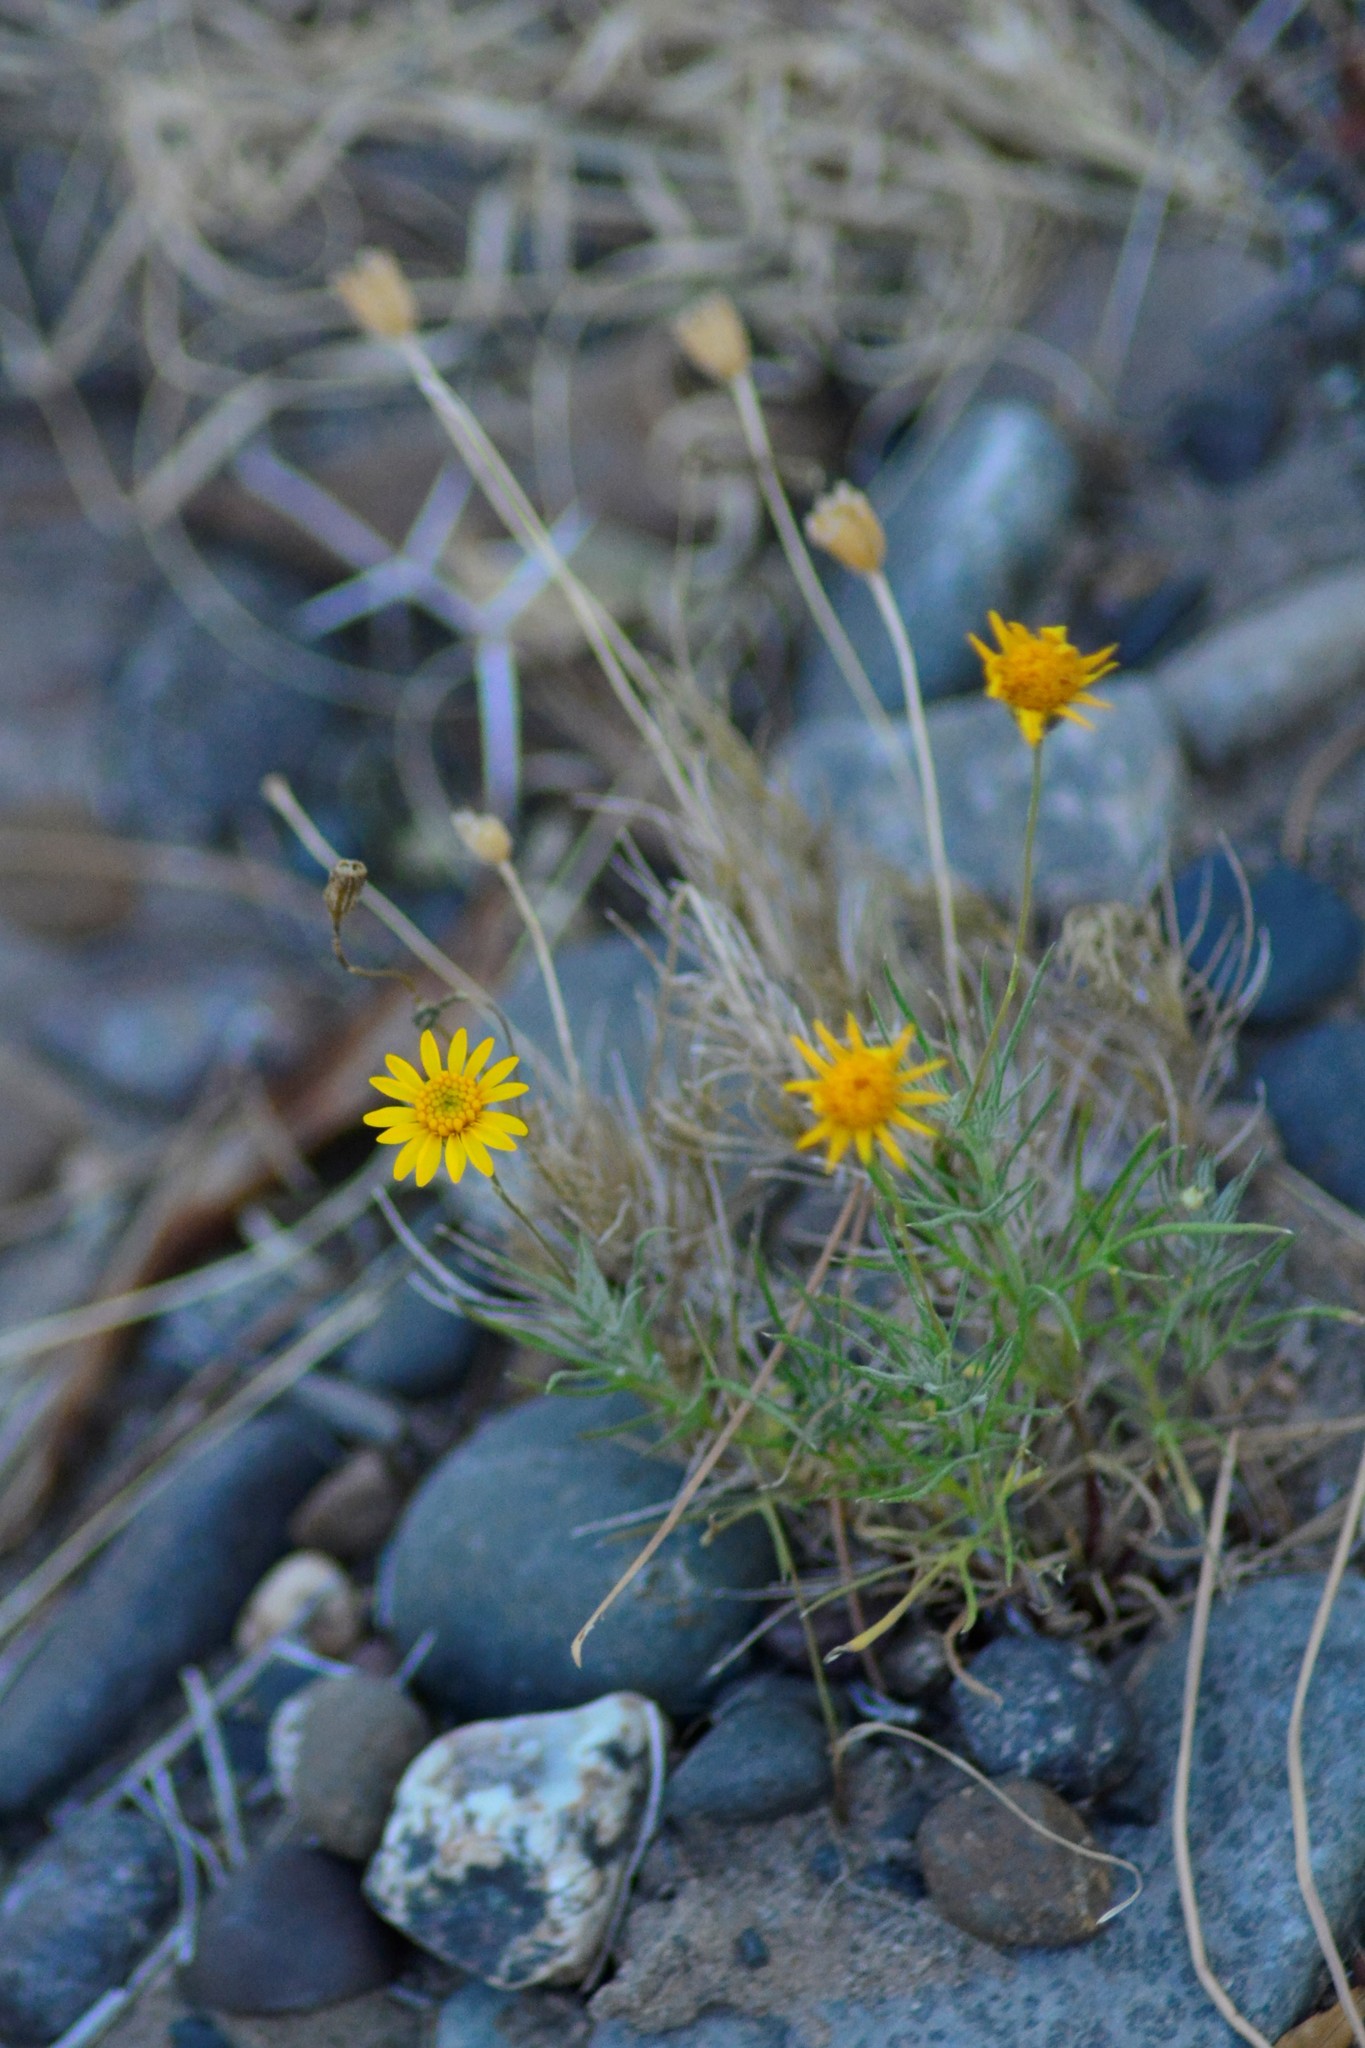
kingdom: Plantae
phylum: Tracheophyta
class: Magnoliopsida
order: Asterales
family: Asteraceae
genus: Thymophylla
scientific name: Thymophylla pentachaeta
